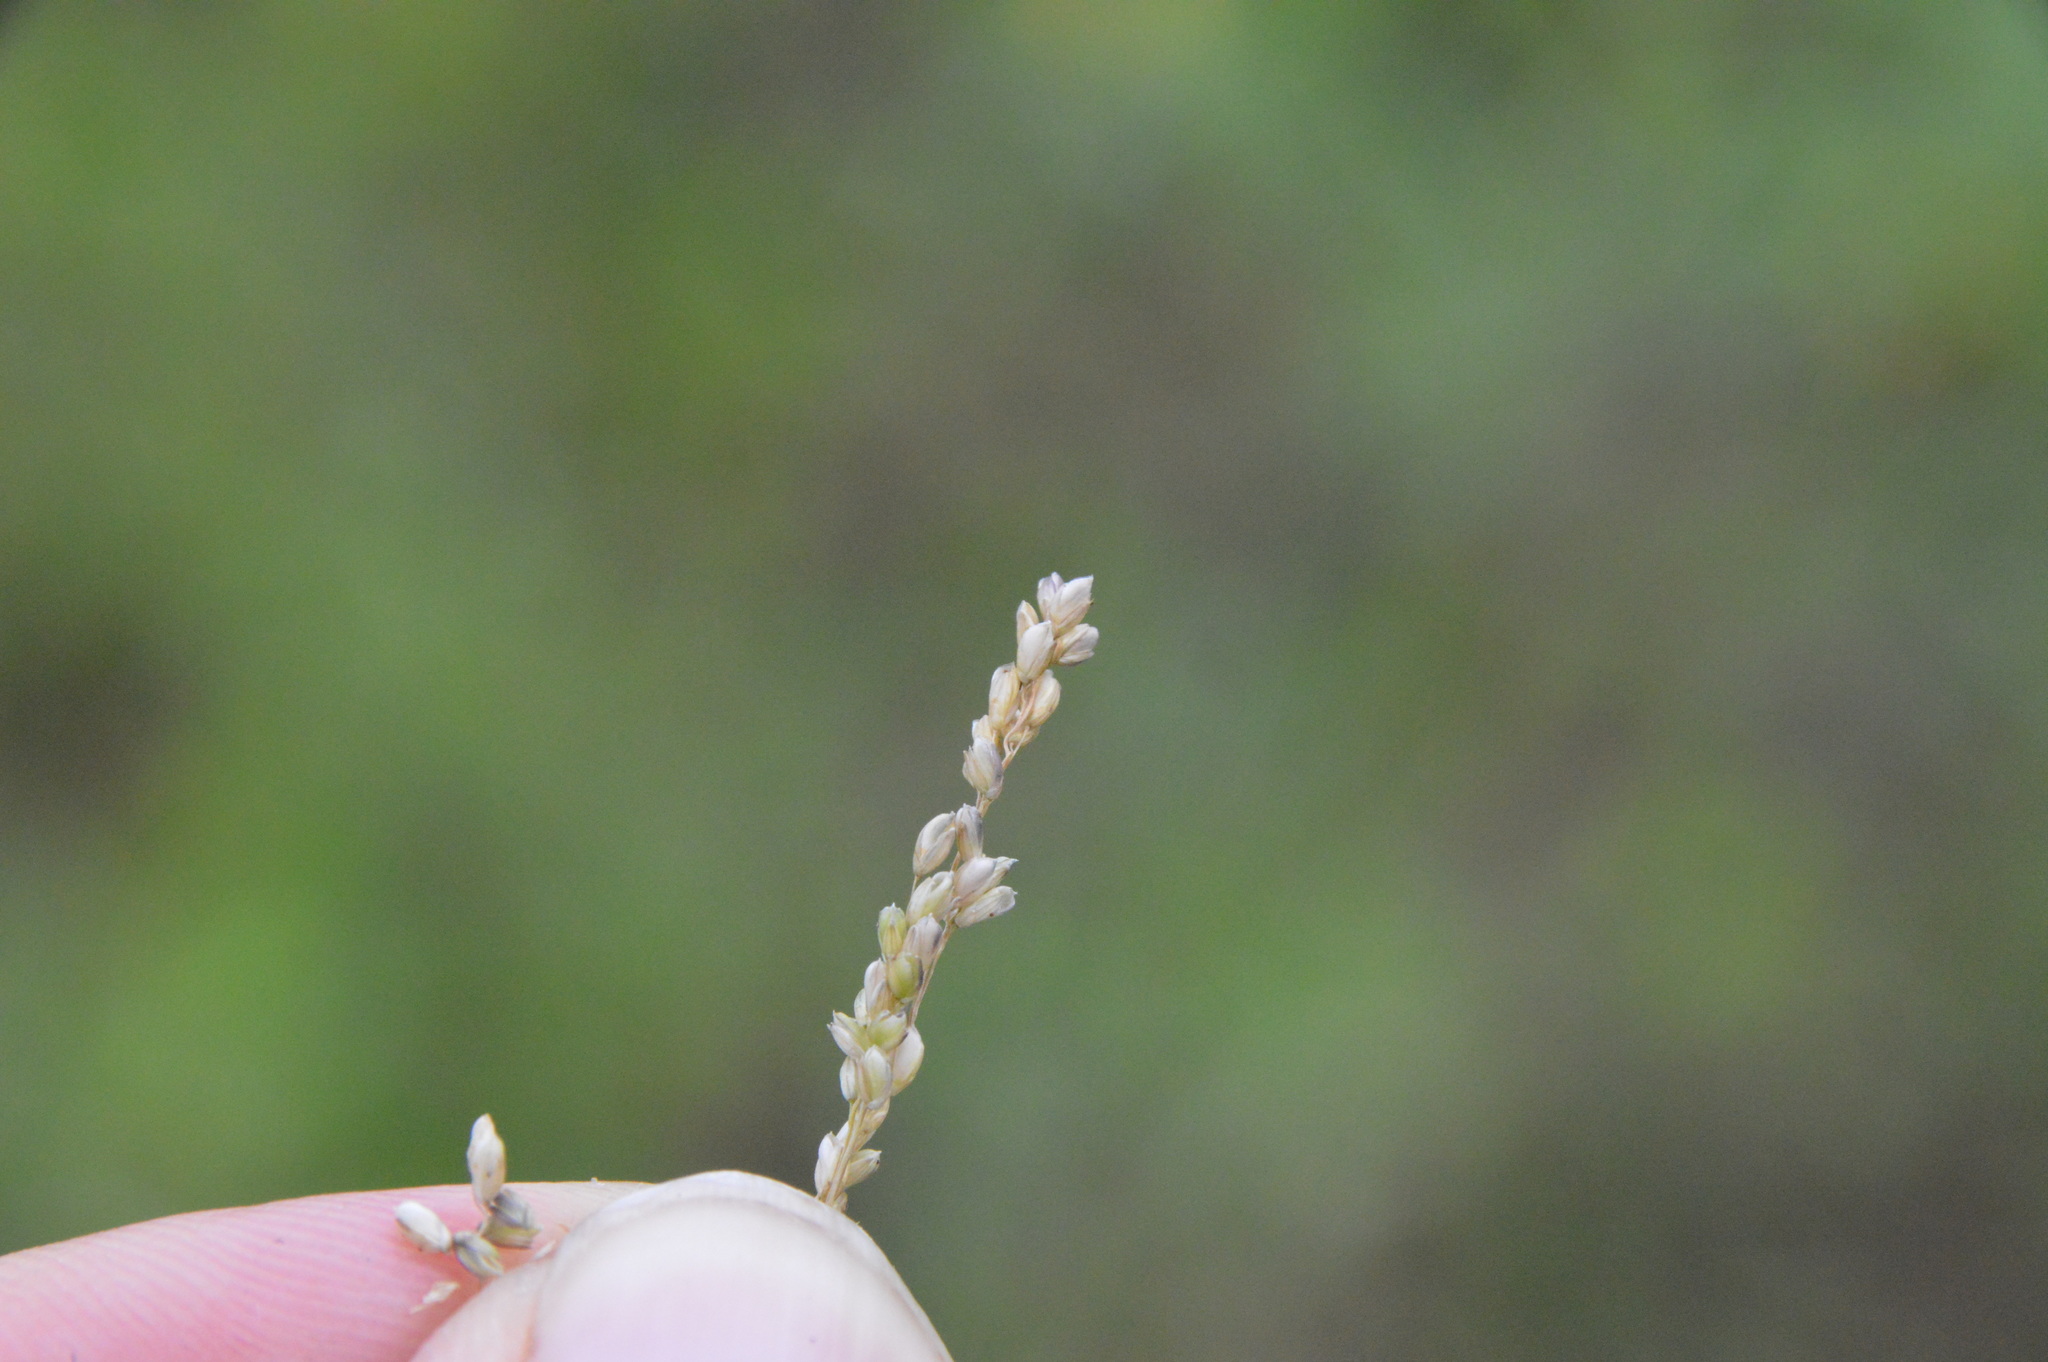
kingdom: Plantae
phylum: Tracheophyta
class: Liliopsida
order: Poales
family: Poaceae
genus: Steinchisma
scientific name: Steinchisma hians
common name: Gaping panic grass
